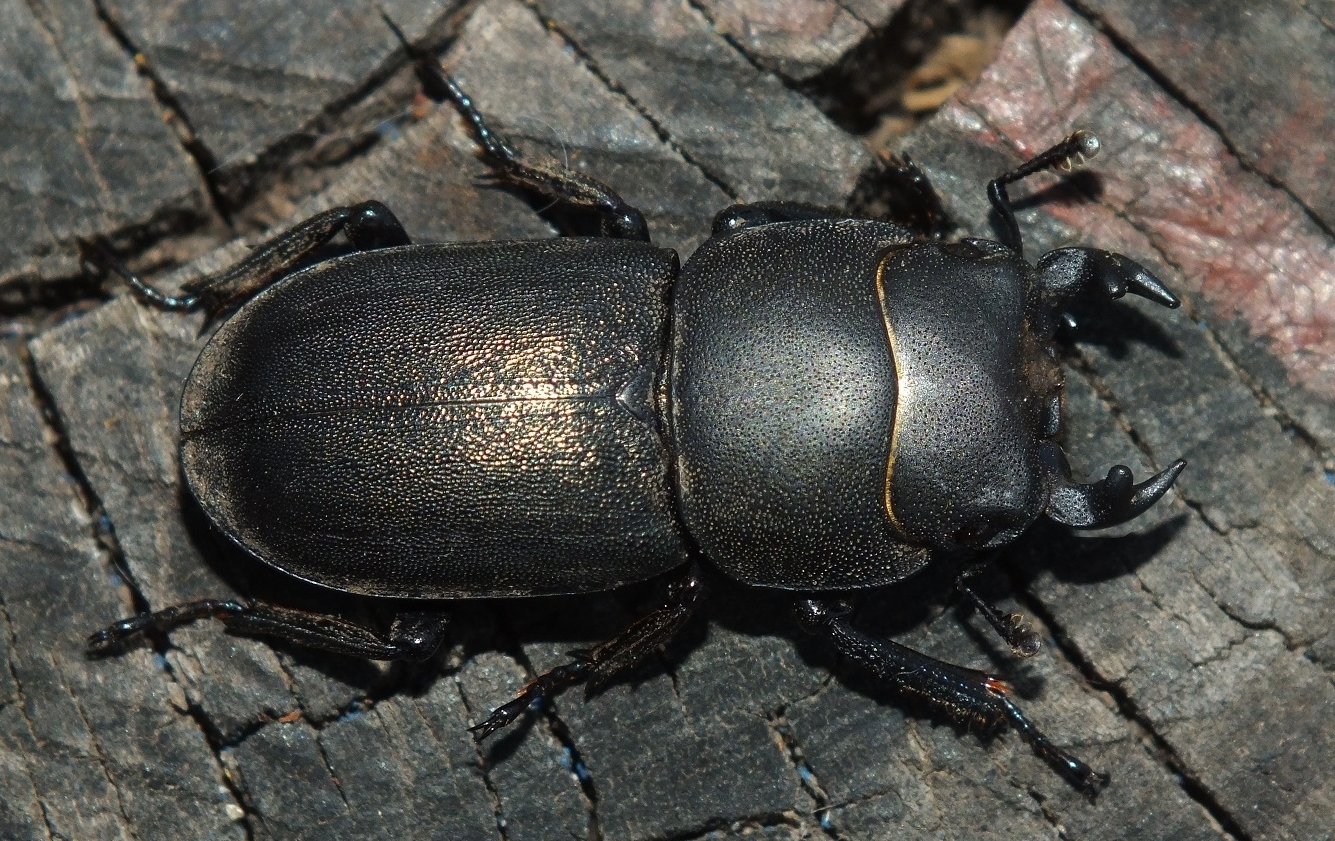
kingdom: Animalia
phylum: Arthropoda
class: Insecta
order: Coleoptera
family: Lucanidae
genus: Dorcus
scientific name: Dorcus parallelipipedus
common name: Lesser stag beetle
